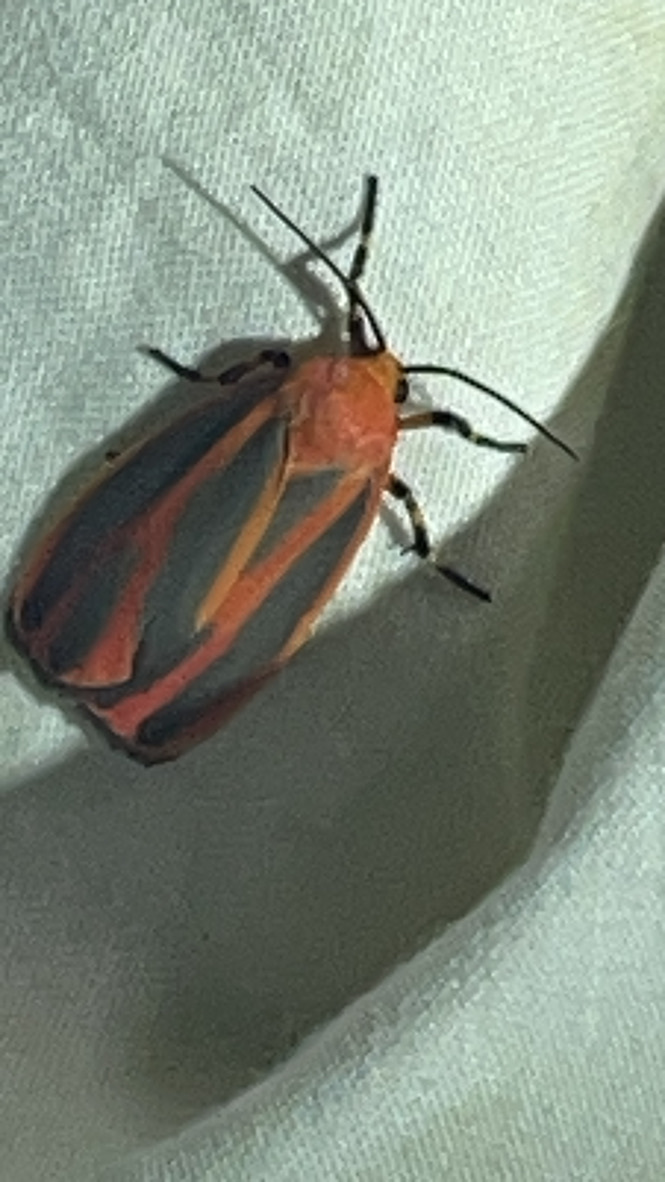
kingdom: Animalia
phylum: Arthropoda
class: Insecta
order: Lepidoptera
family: Erebidae
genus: Hypoprepia
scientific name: Hypoprepia miniata
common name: Scarlet-winged lichen moth
